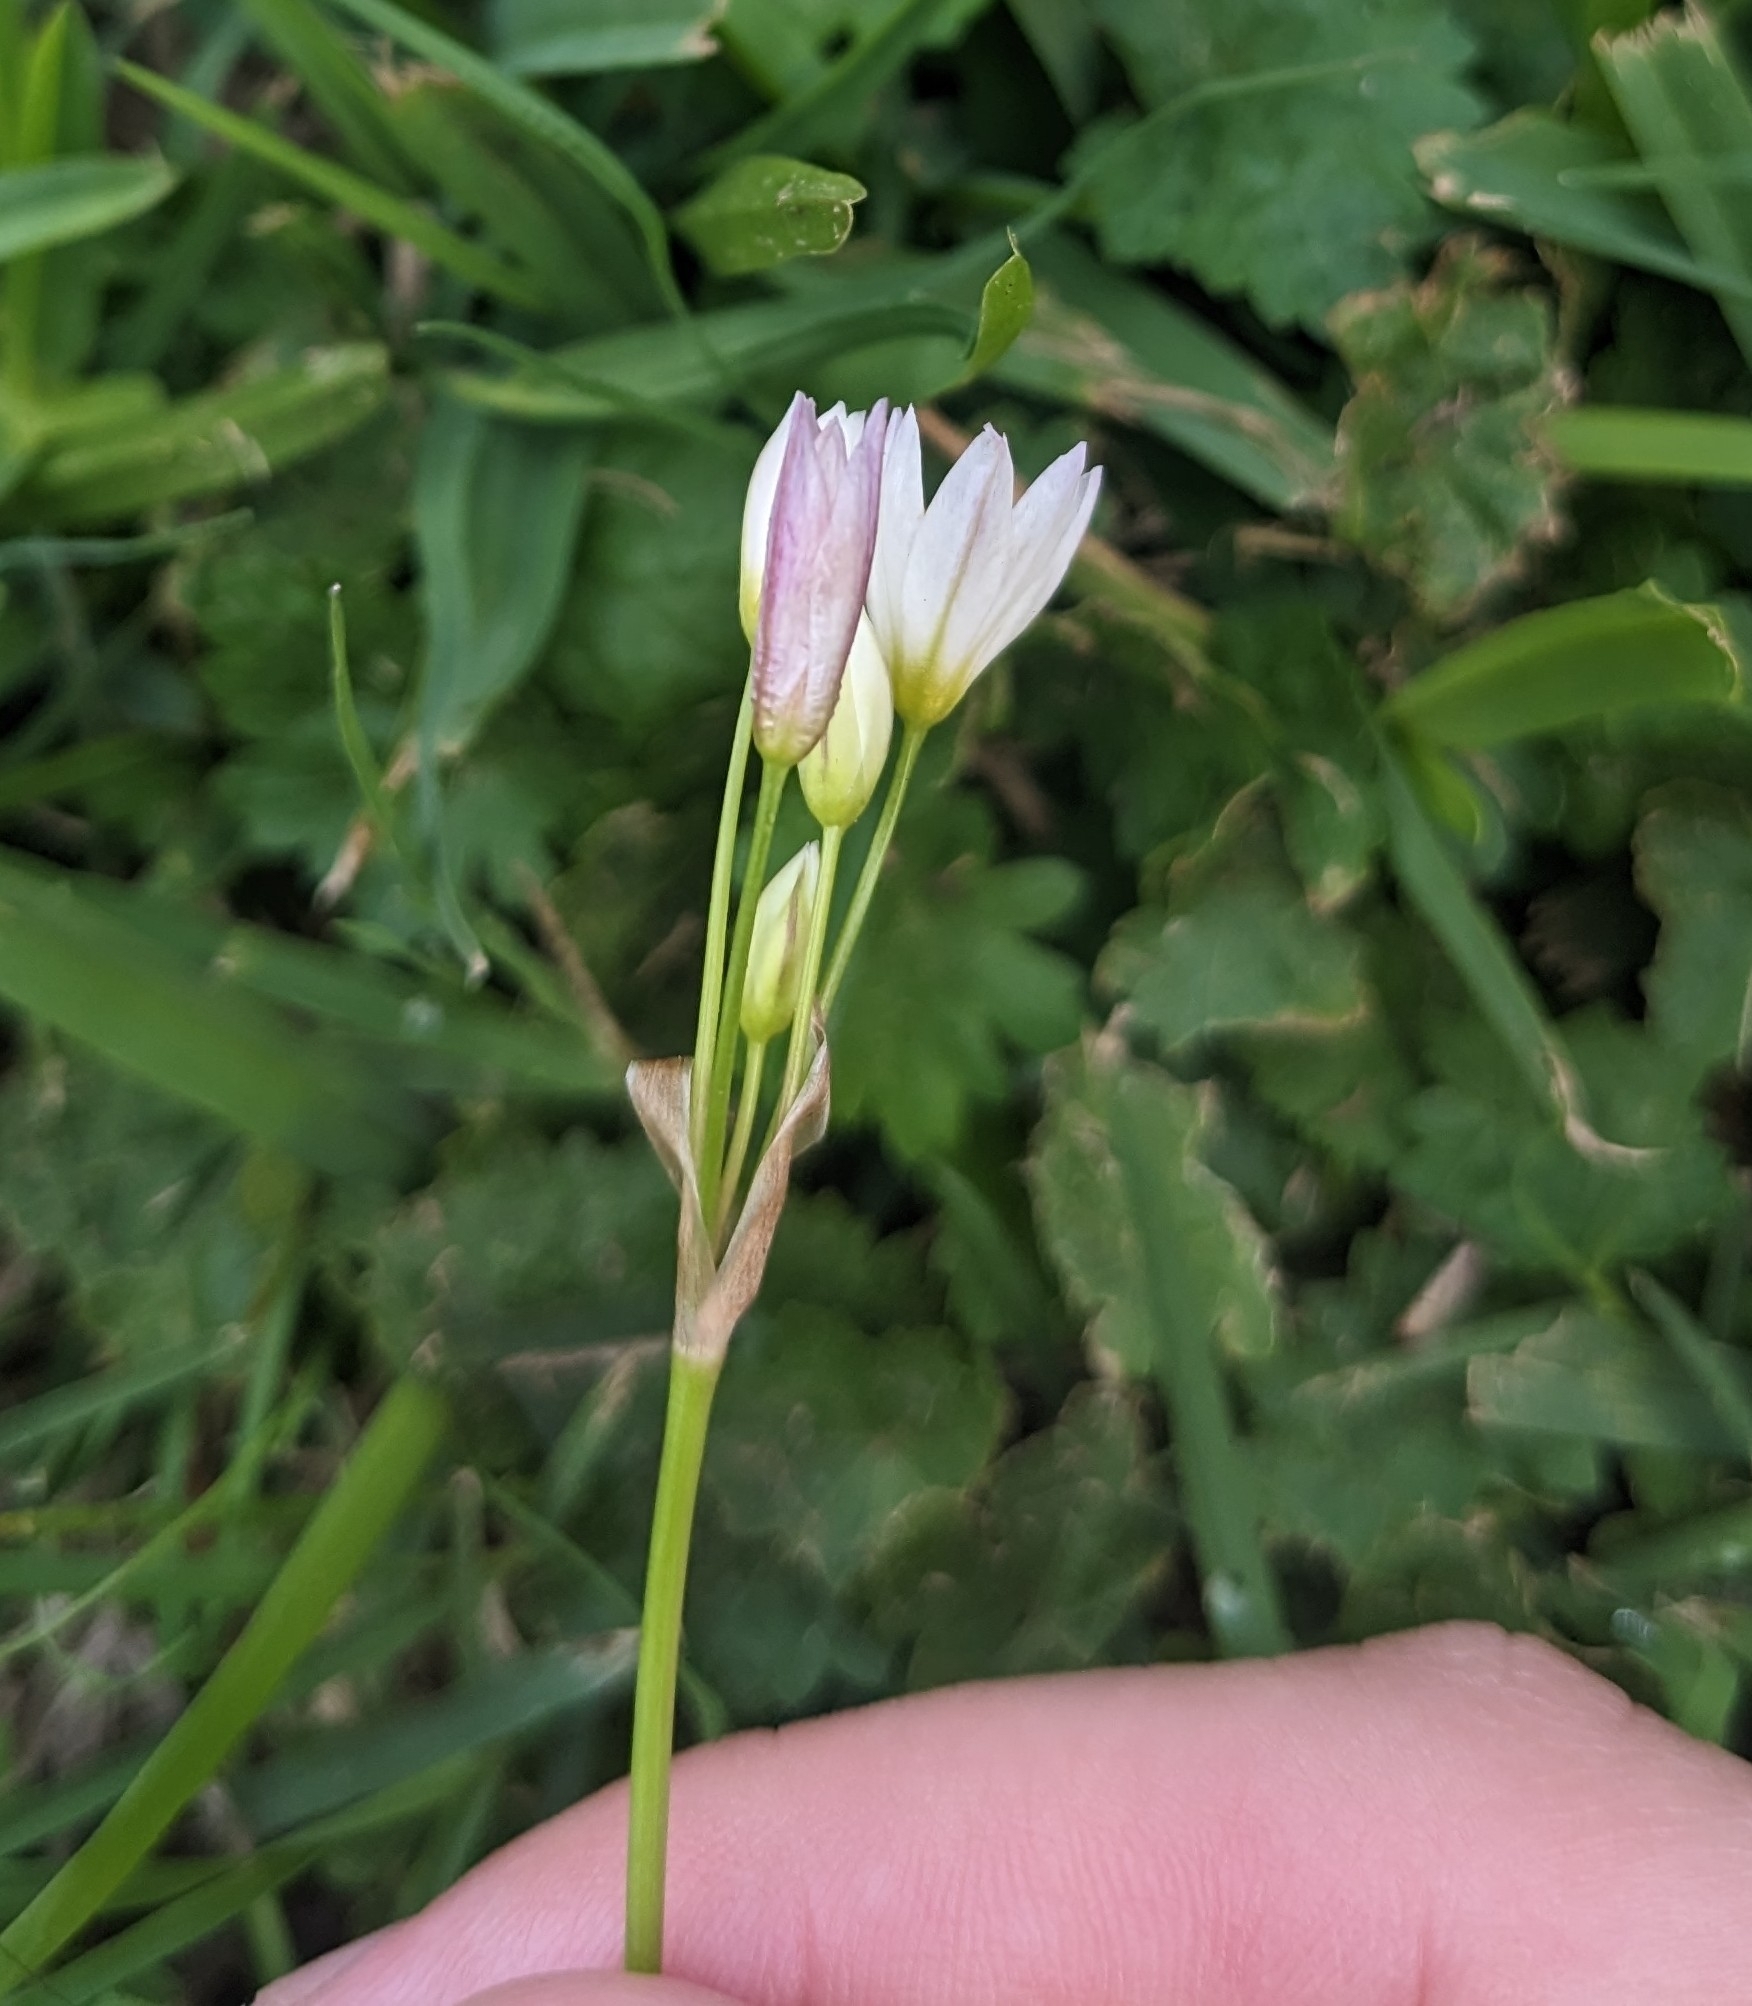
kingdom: Plantae
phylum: Tracheophyta
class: Liliopsida
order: Asparagales
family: Amaryllidaceae
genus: Nothoscordum
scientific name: Nothoscordum bivalve
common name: Crow-poison
